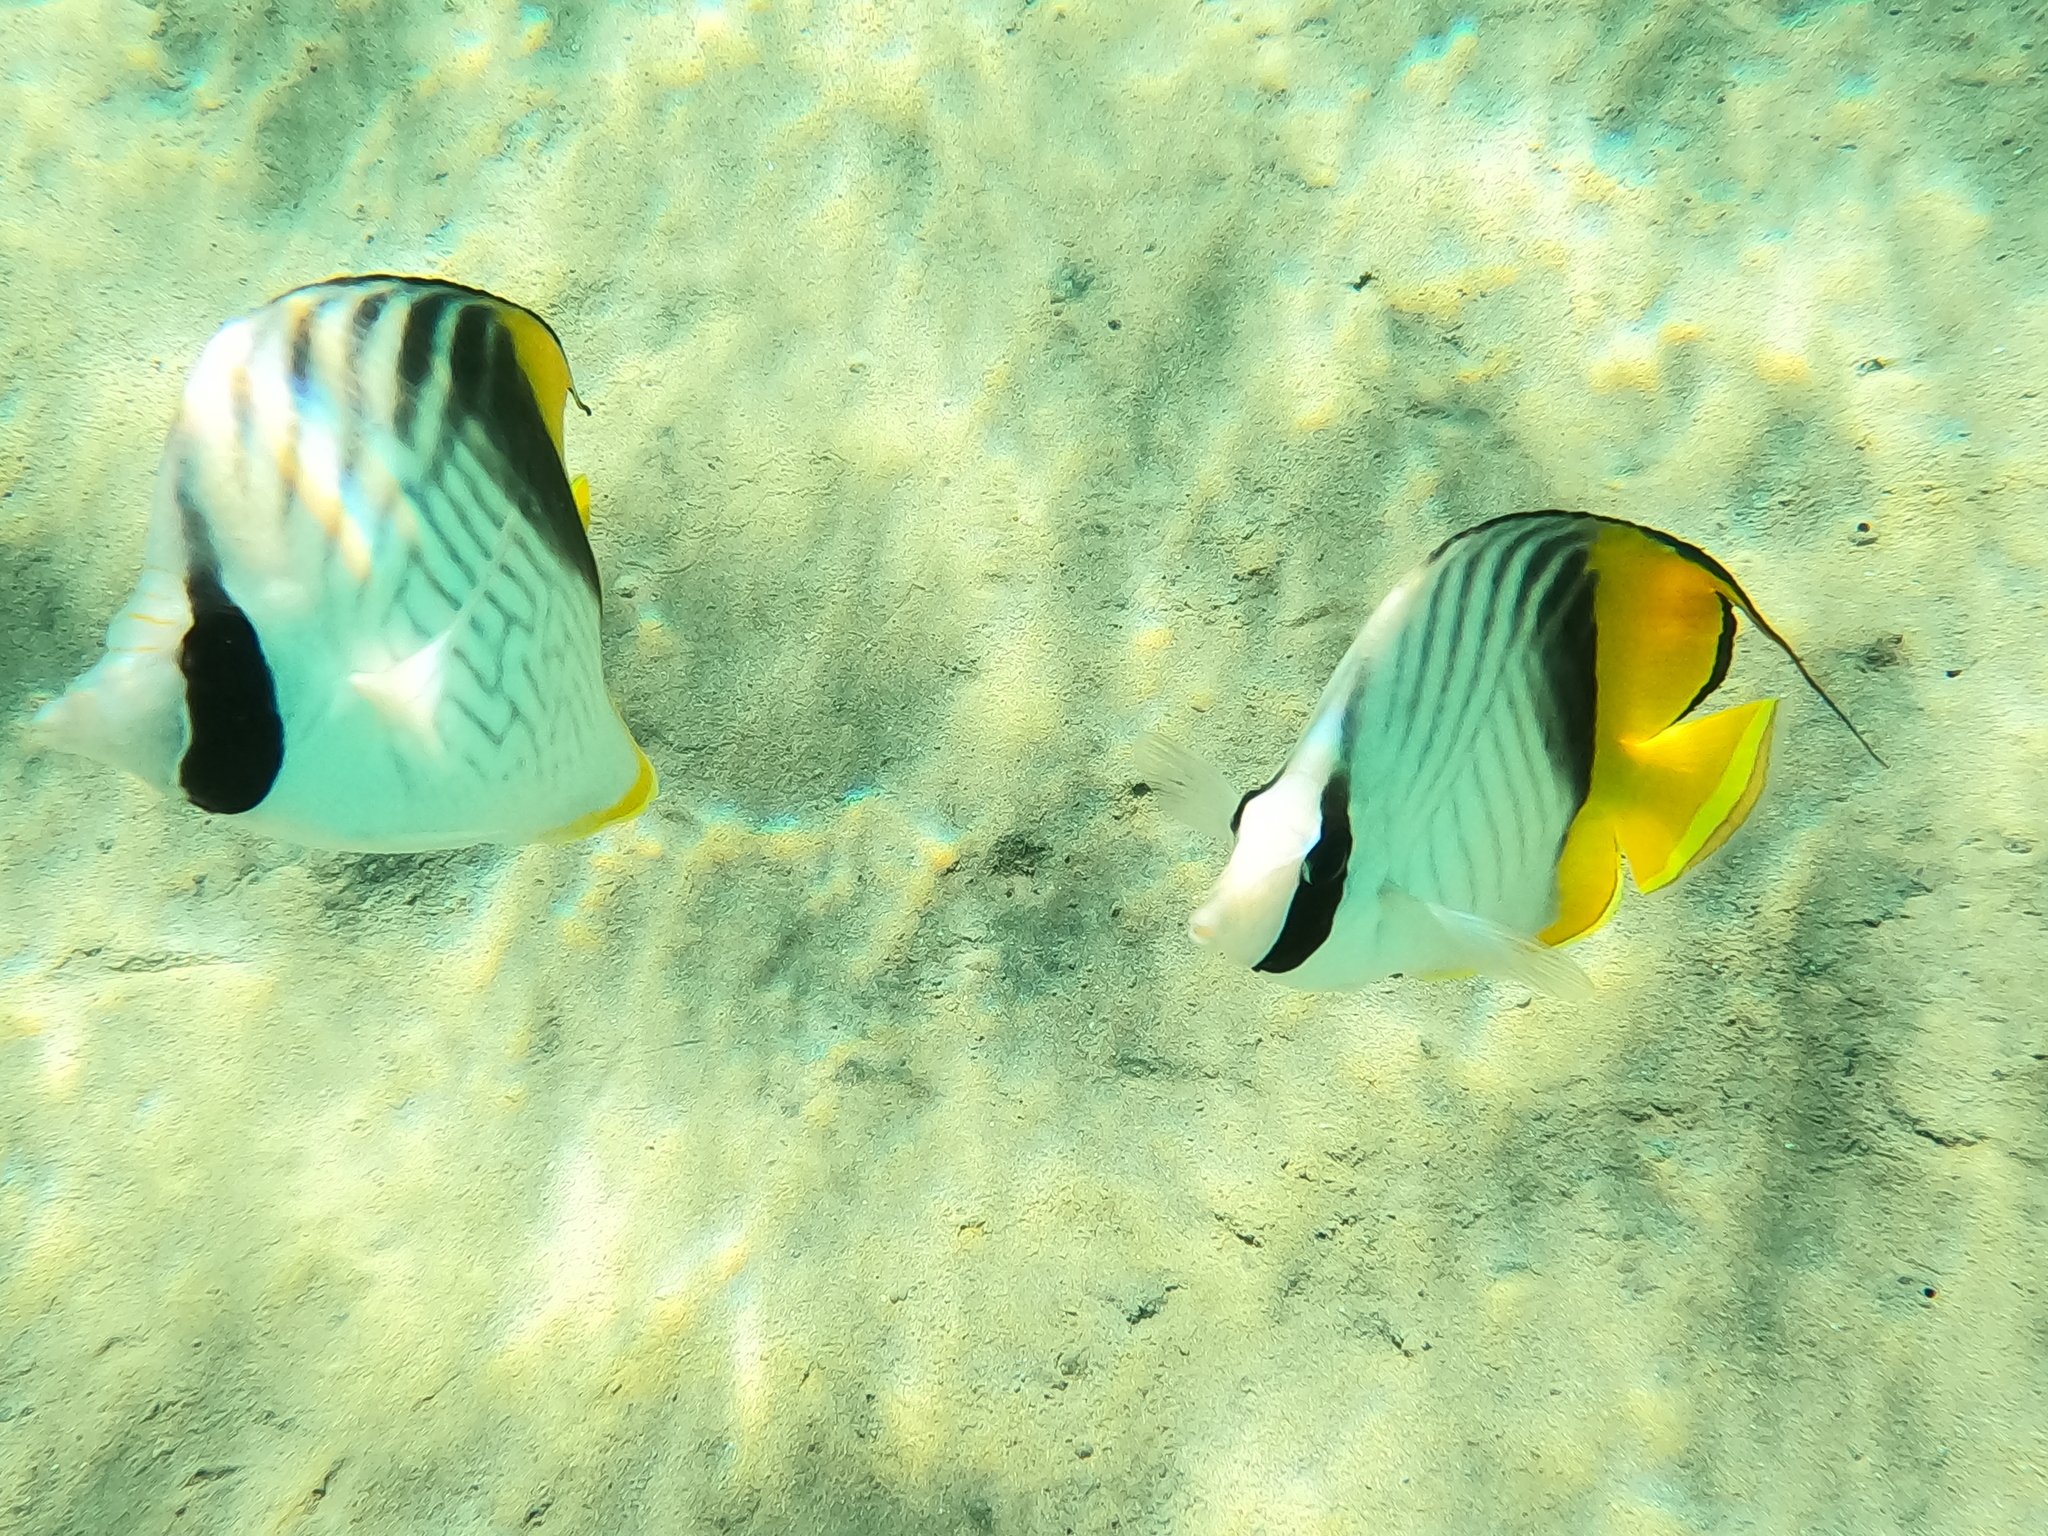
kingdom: Animalia
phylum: Chordata
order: Perciformes
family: Chaetodontidae
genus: Chaetodon
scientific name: Chaetodon auriga
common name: Threadfin butterflyfish
